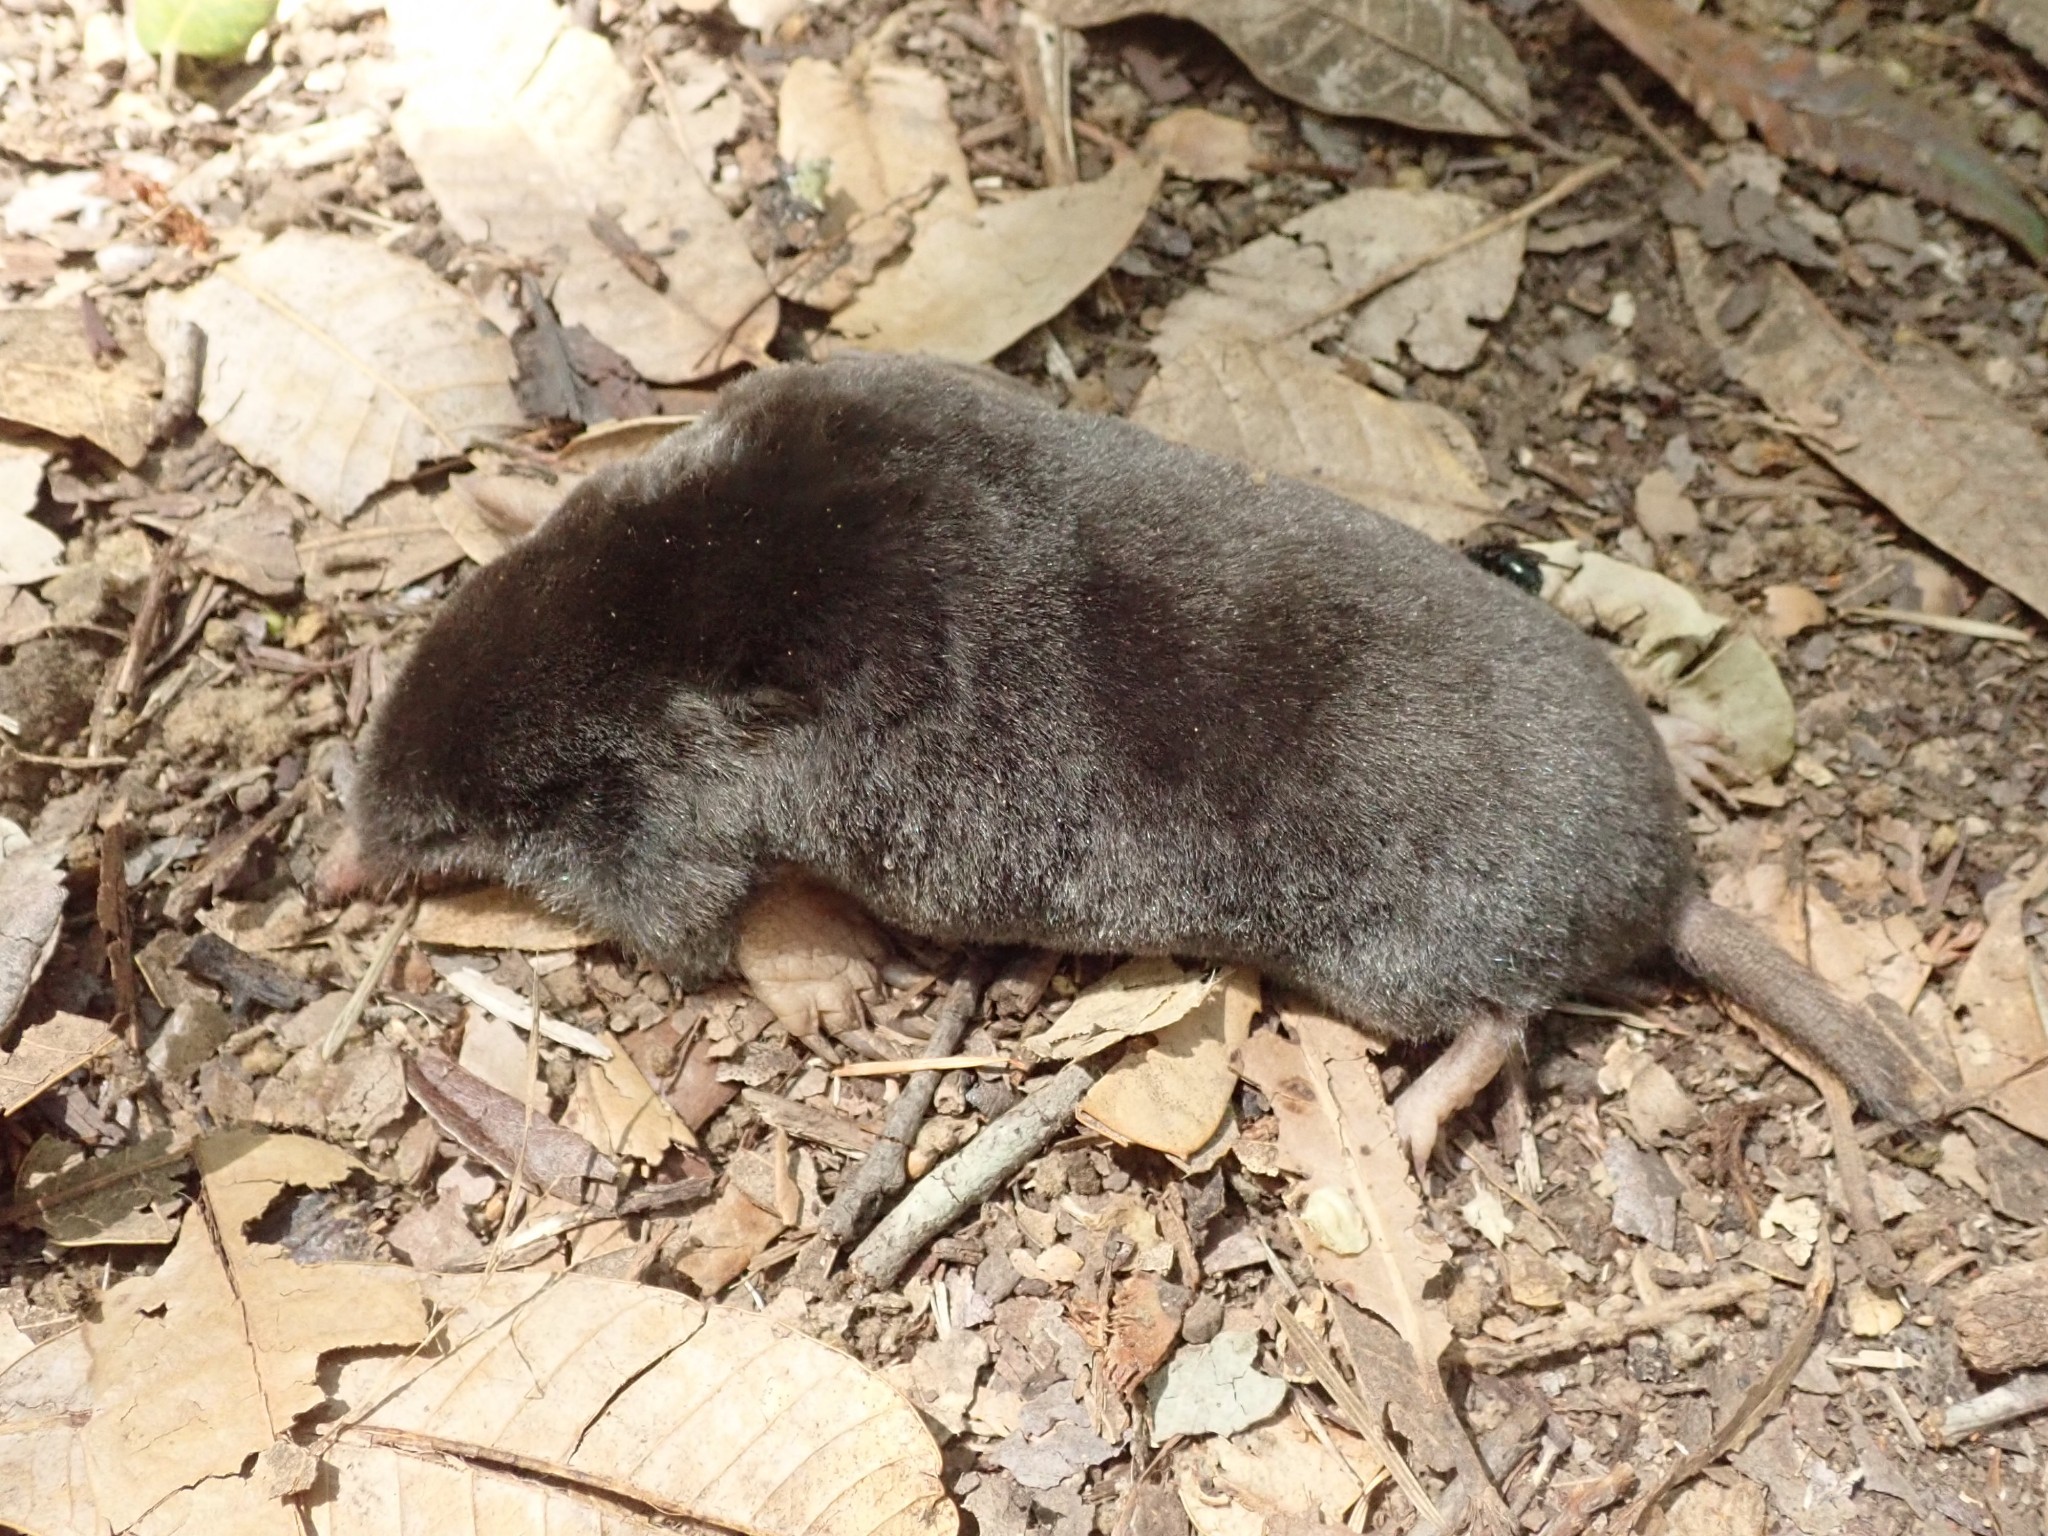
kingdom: Animalia
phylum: Chordata
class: Mammalia
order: Soricomorpha
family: Talpidae
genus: Scapanus
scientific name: Scapanus latimanus
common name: Broad-footed mole
